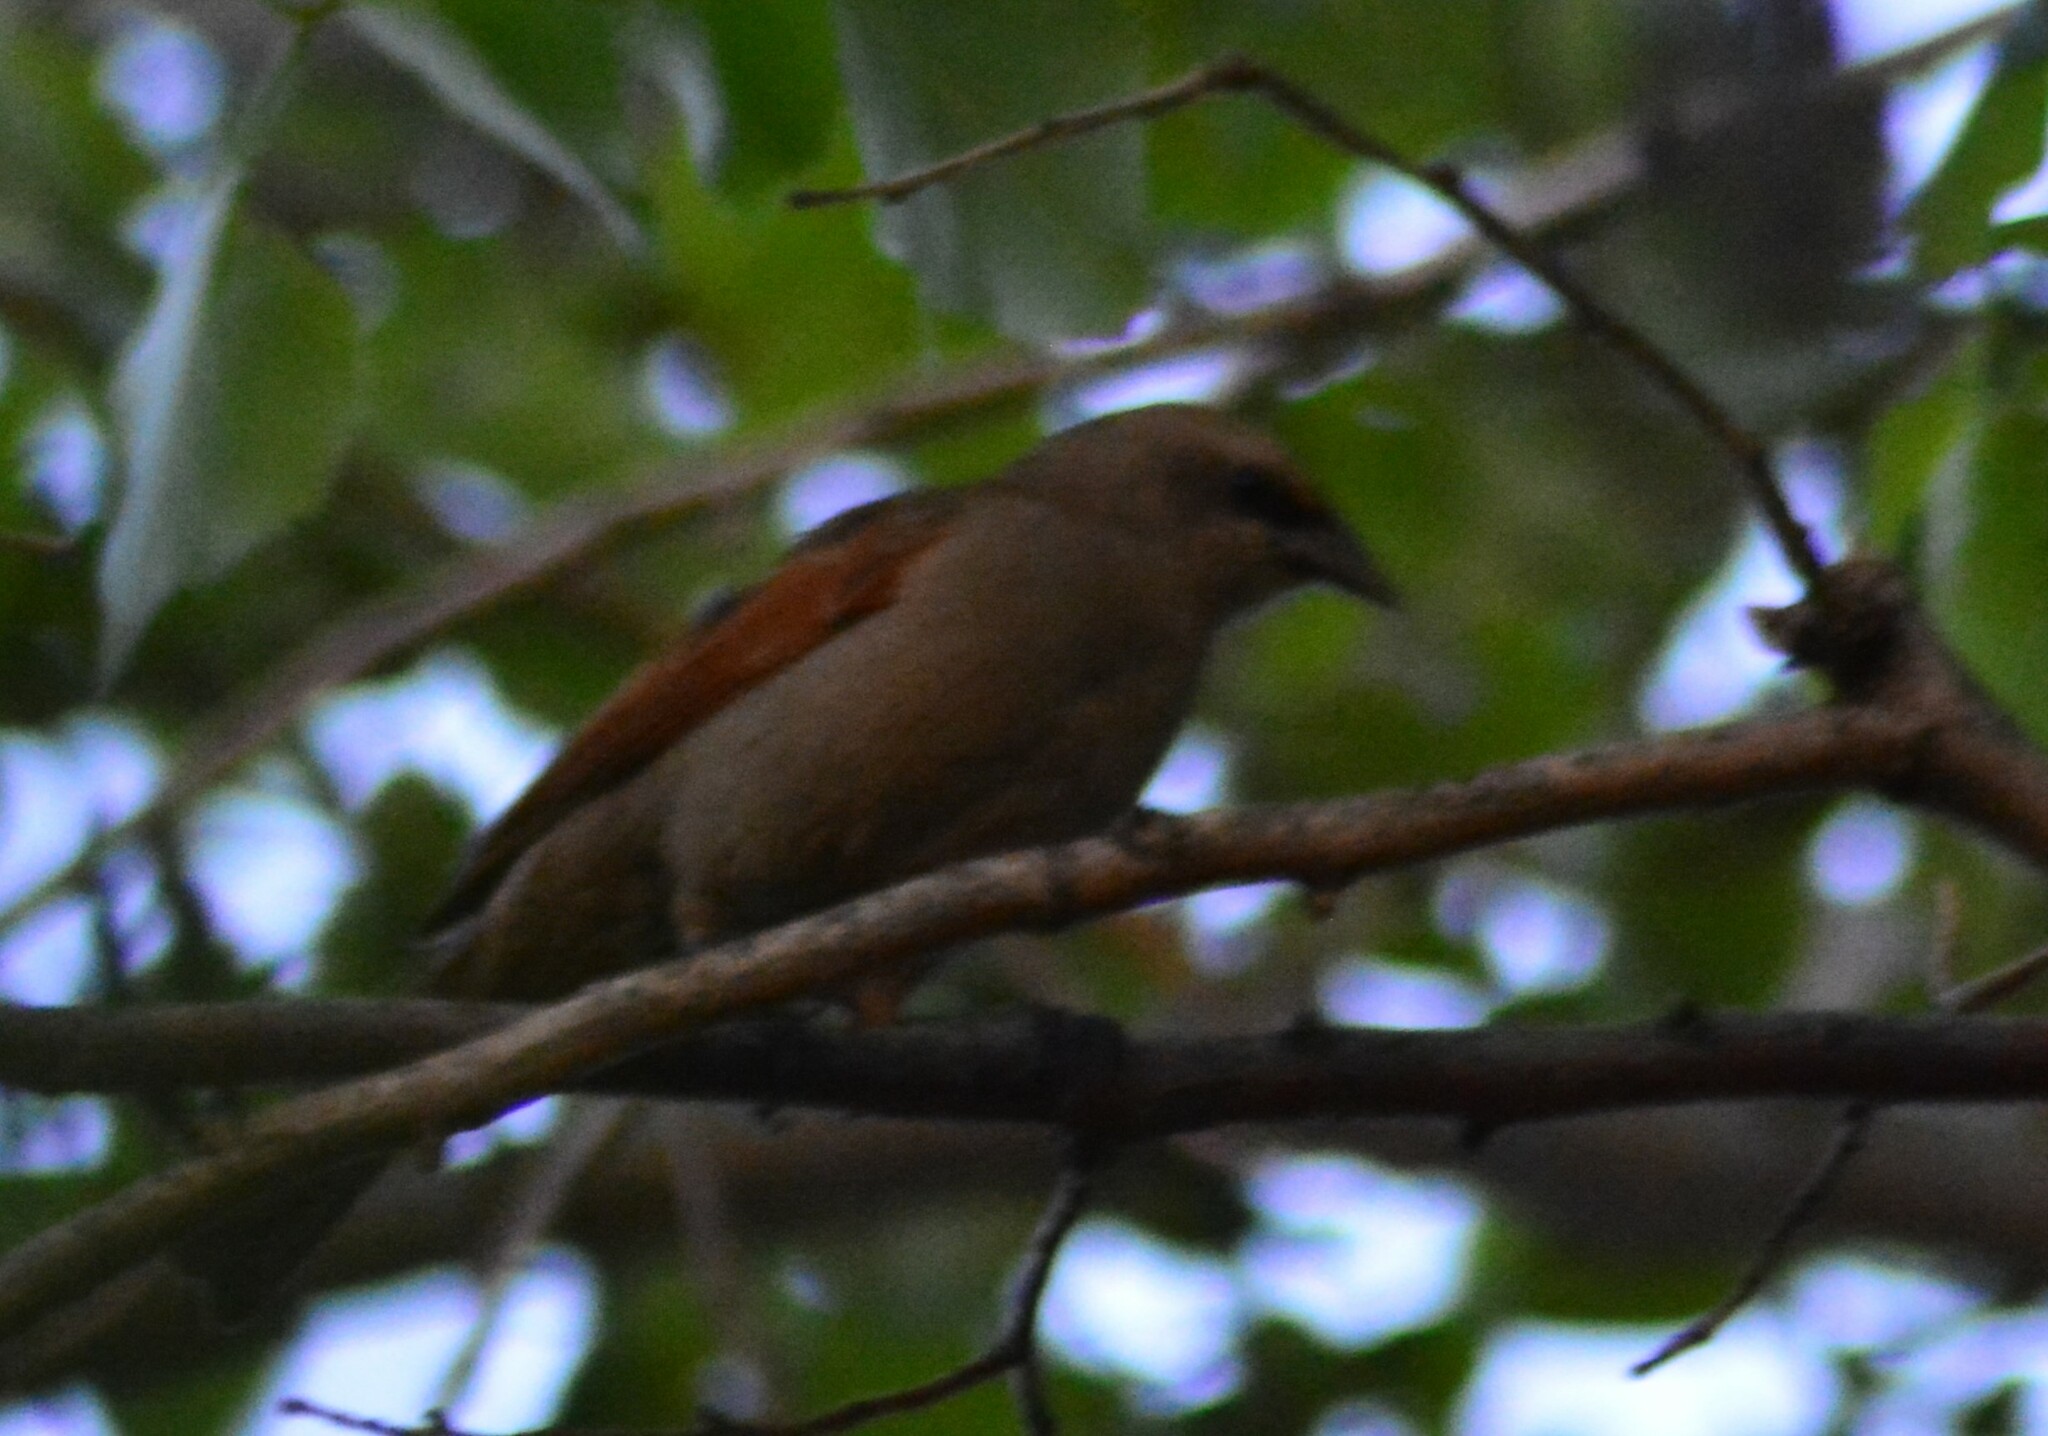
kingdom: Animalia
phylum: Chordata
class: Aves
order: Passeriformes
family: Icteridae
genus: Agelaioides
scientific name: Agelaioides badius
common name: Baywing
